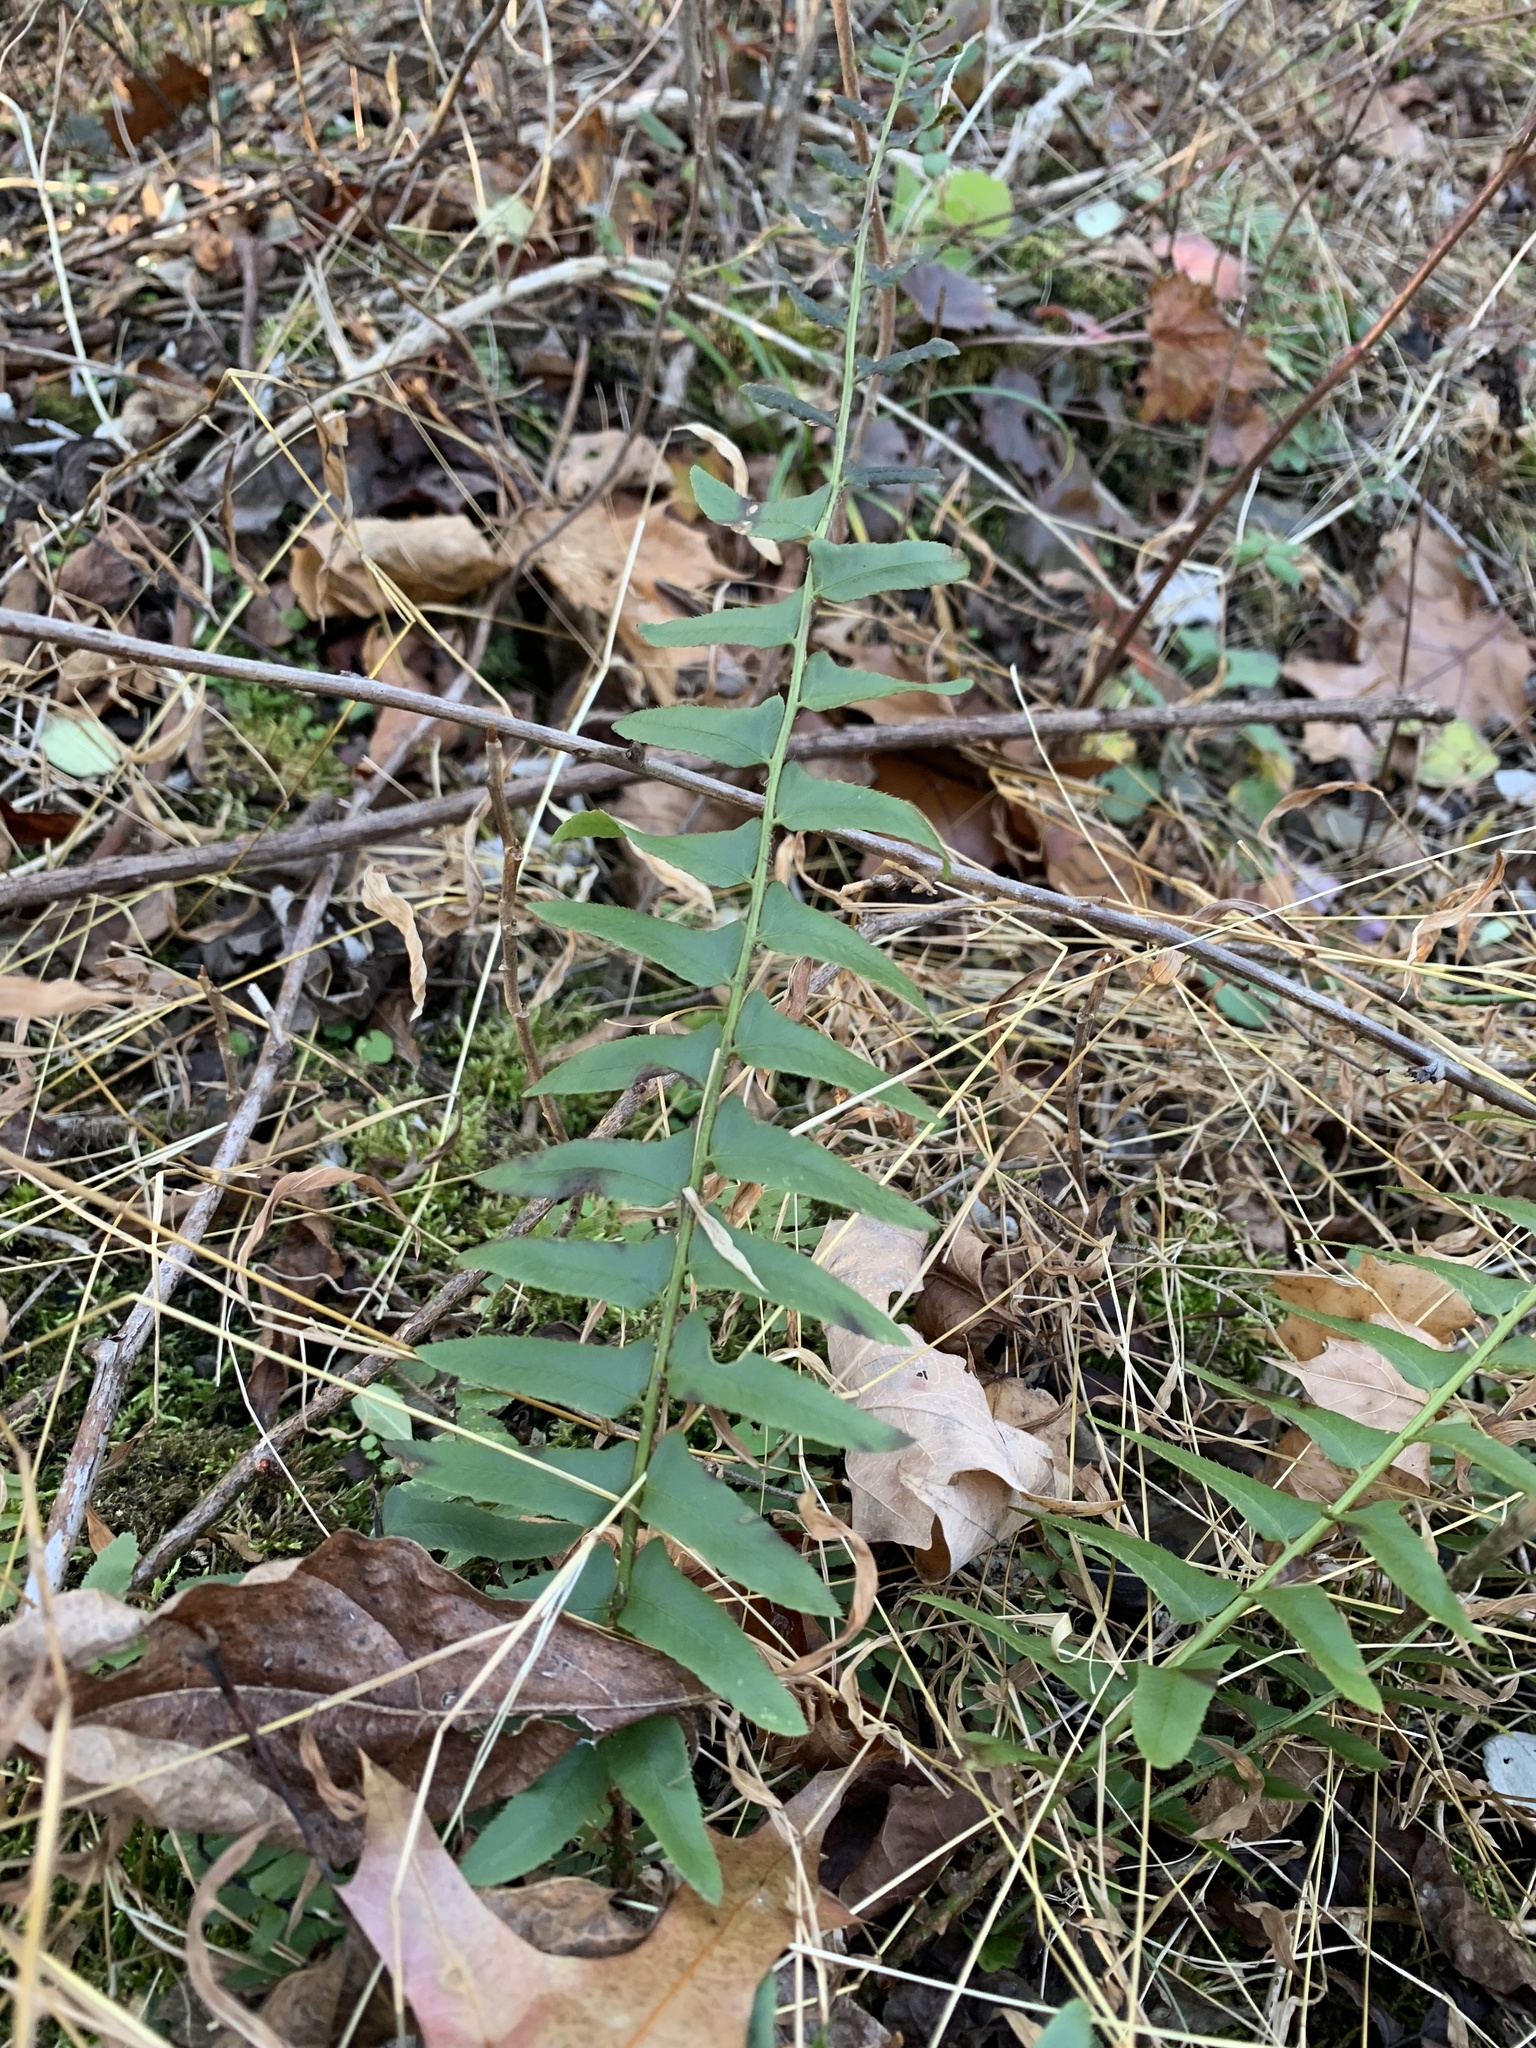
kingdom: Plantae
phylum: Tracheophyta
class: Polypodiopsida
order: Polypodiales
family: Dryopteridaceae
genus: Polystichum
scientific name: Polystichum acrostichoides
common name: Christmas fern
